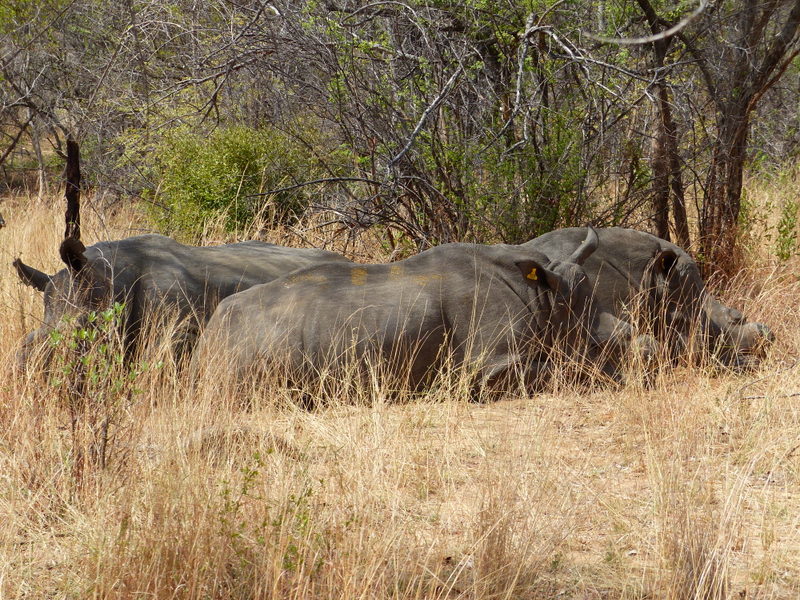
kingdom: Animalia
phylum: Chordata
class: Mammalia
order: Perissodactyla
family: Rhinocerotidae
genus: Ceratotherium
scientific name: Ceratotherium simum
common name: White rhinoceros
